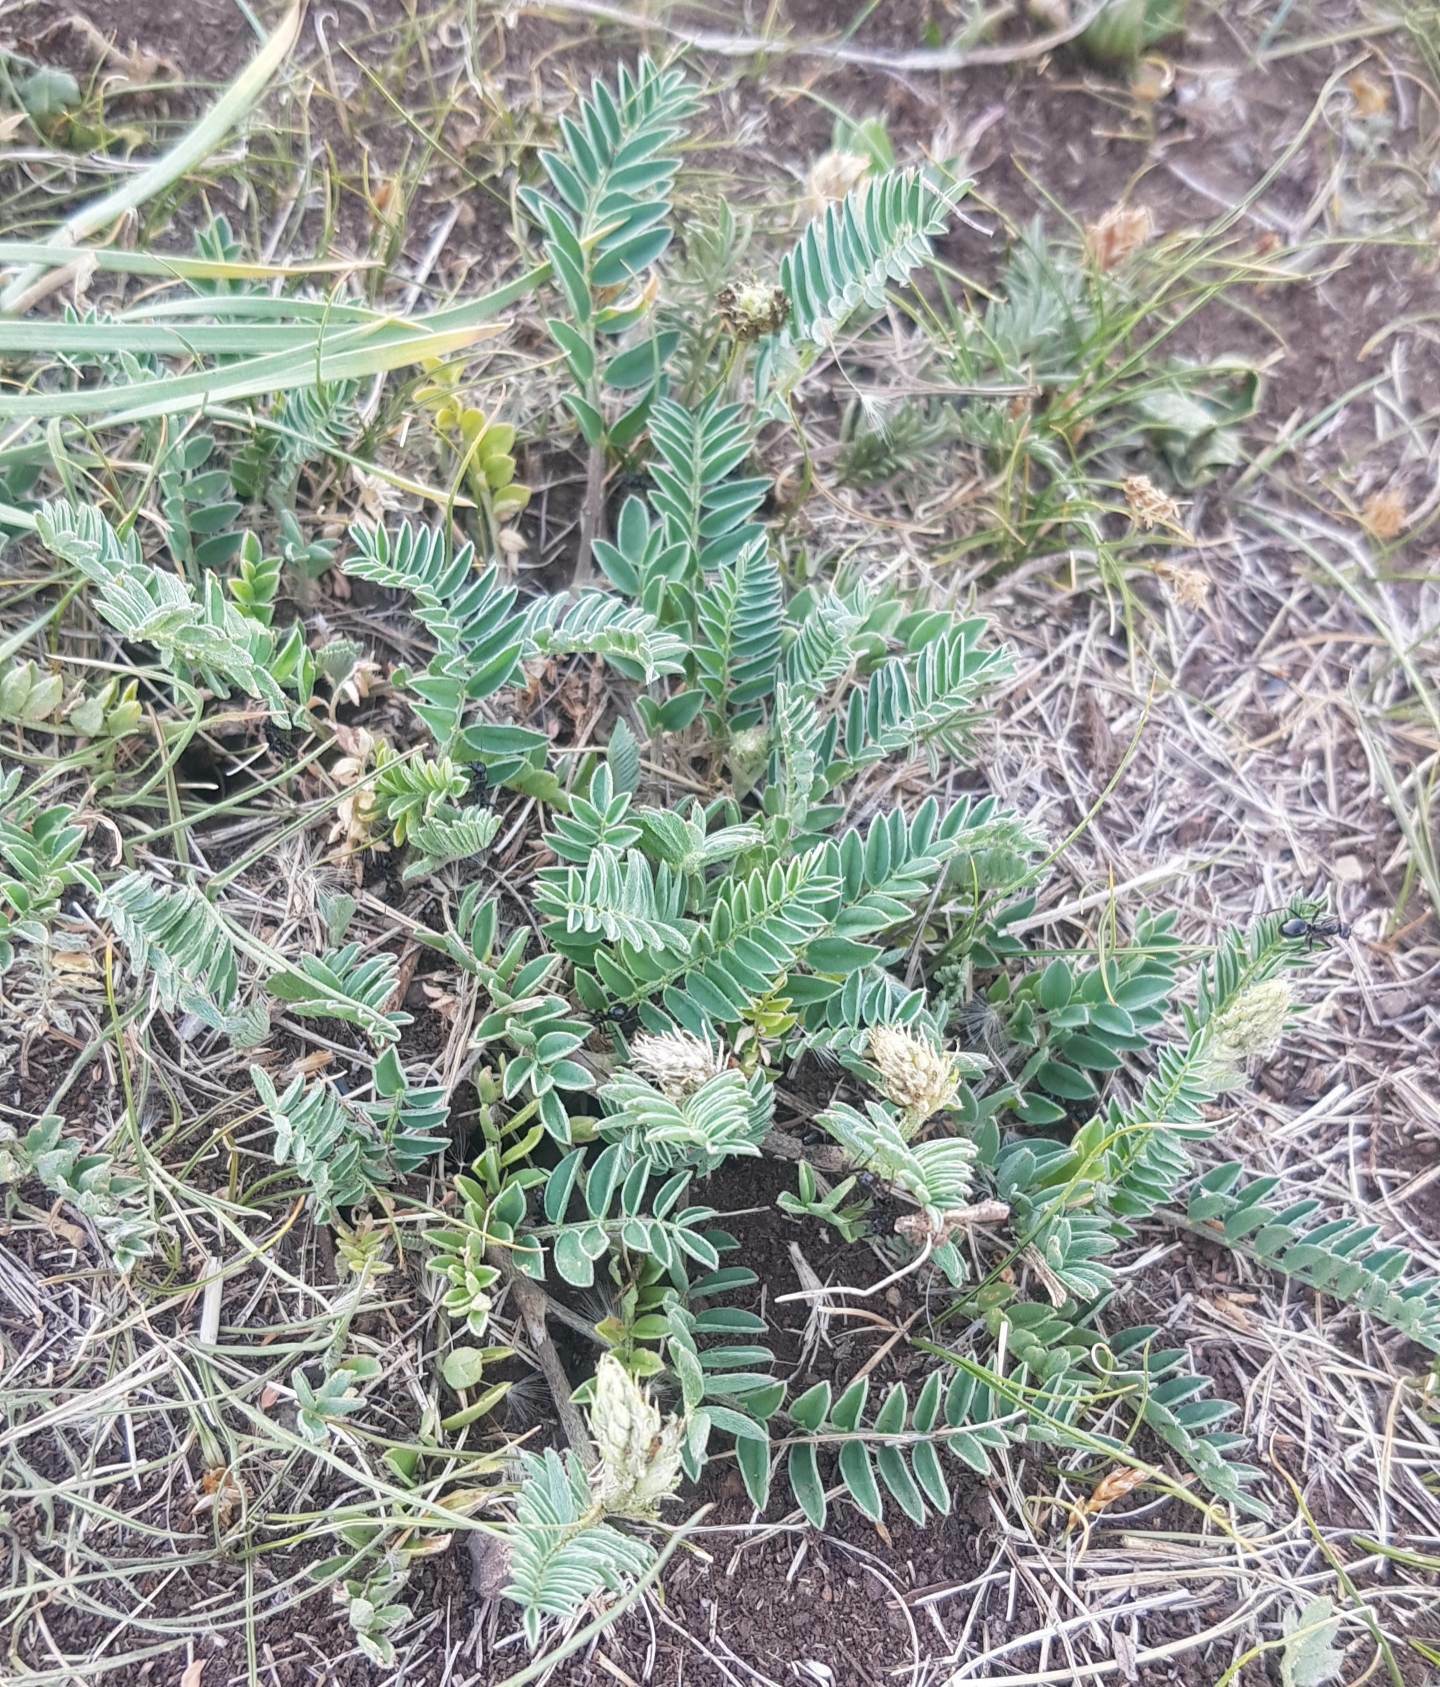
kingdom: Plantae
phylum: Tracheophyta
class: Magnoliopsida
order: Fabales
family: Fabaceae
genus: Astragalus
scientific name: Astragalus laxmannii
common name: Laxmann's milk-vetch
